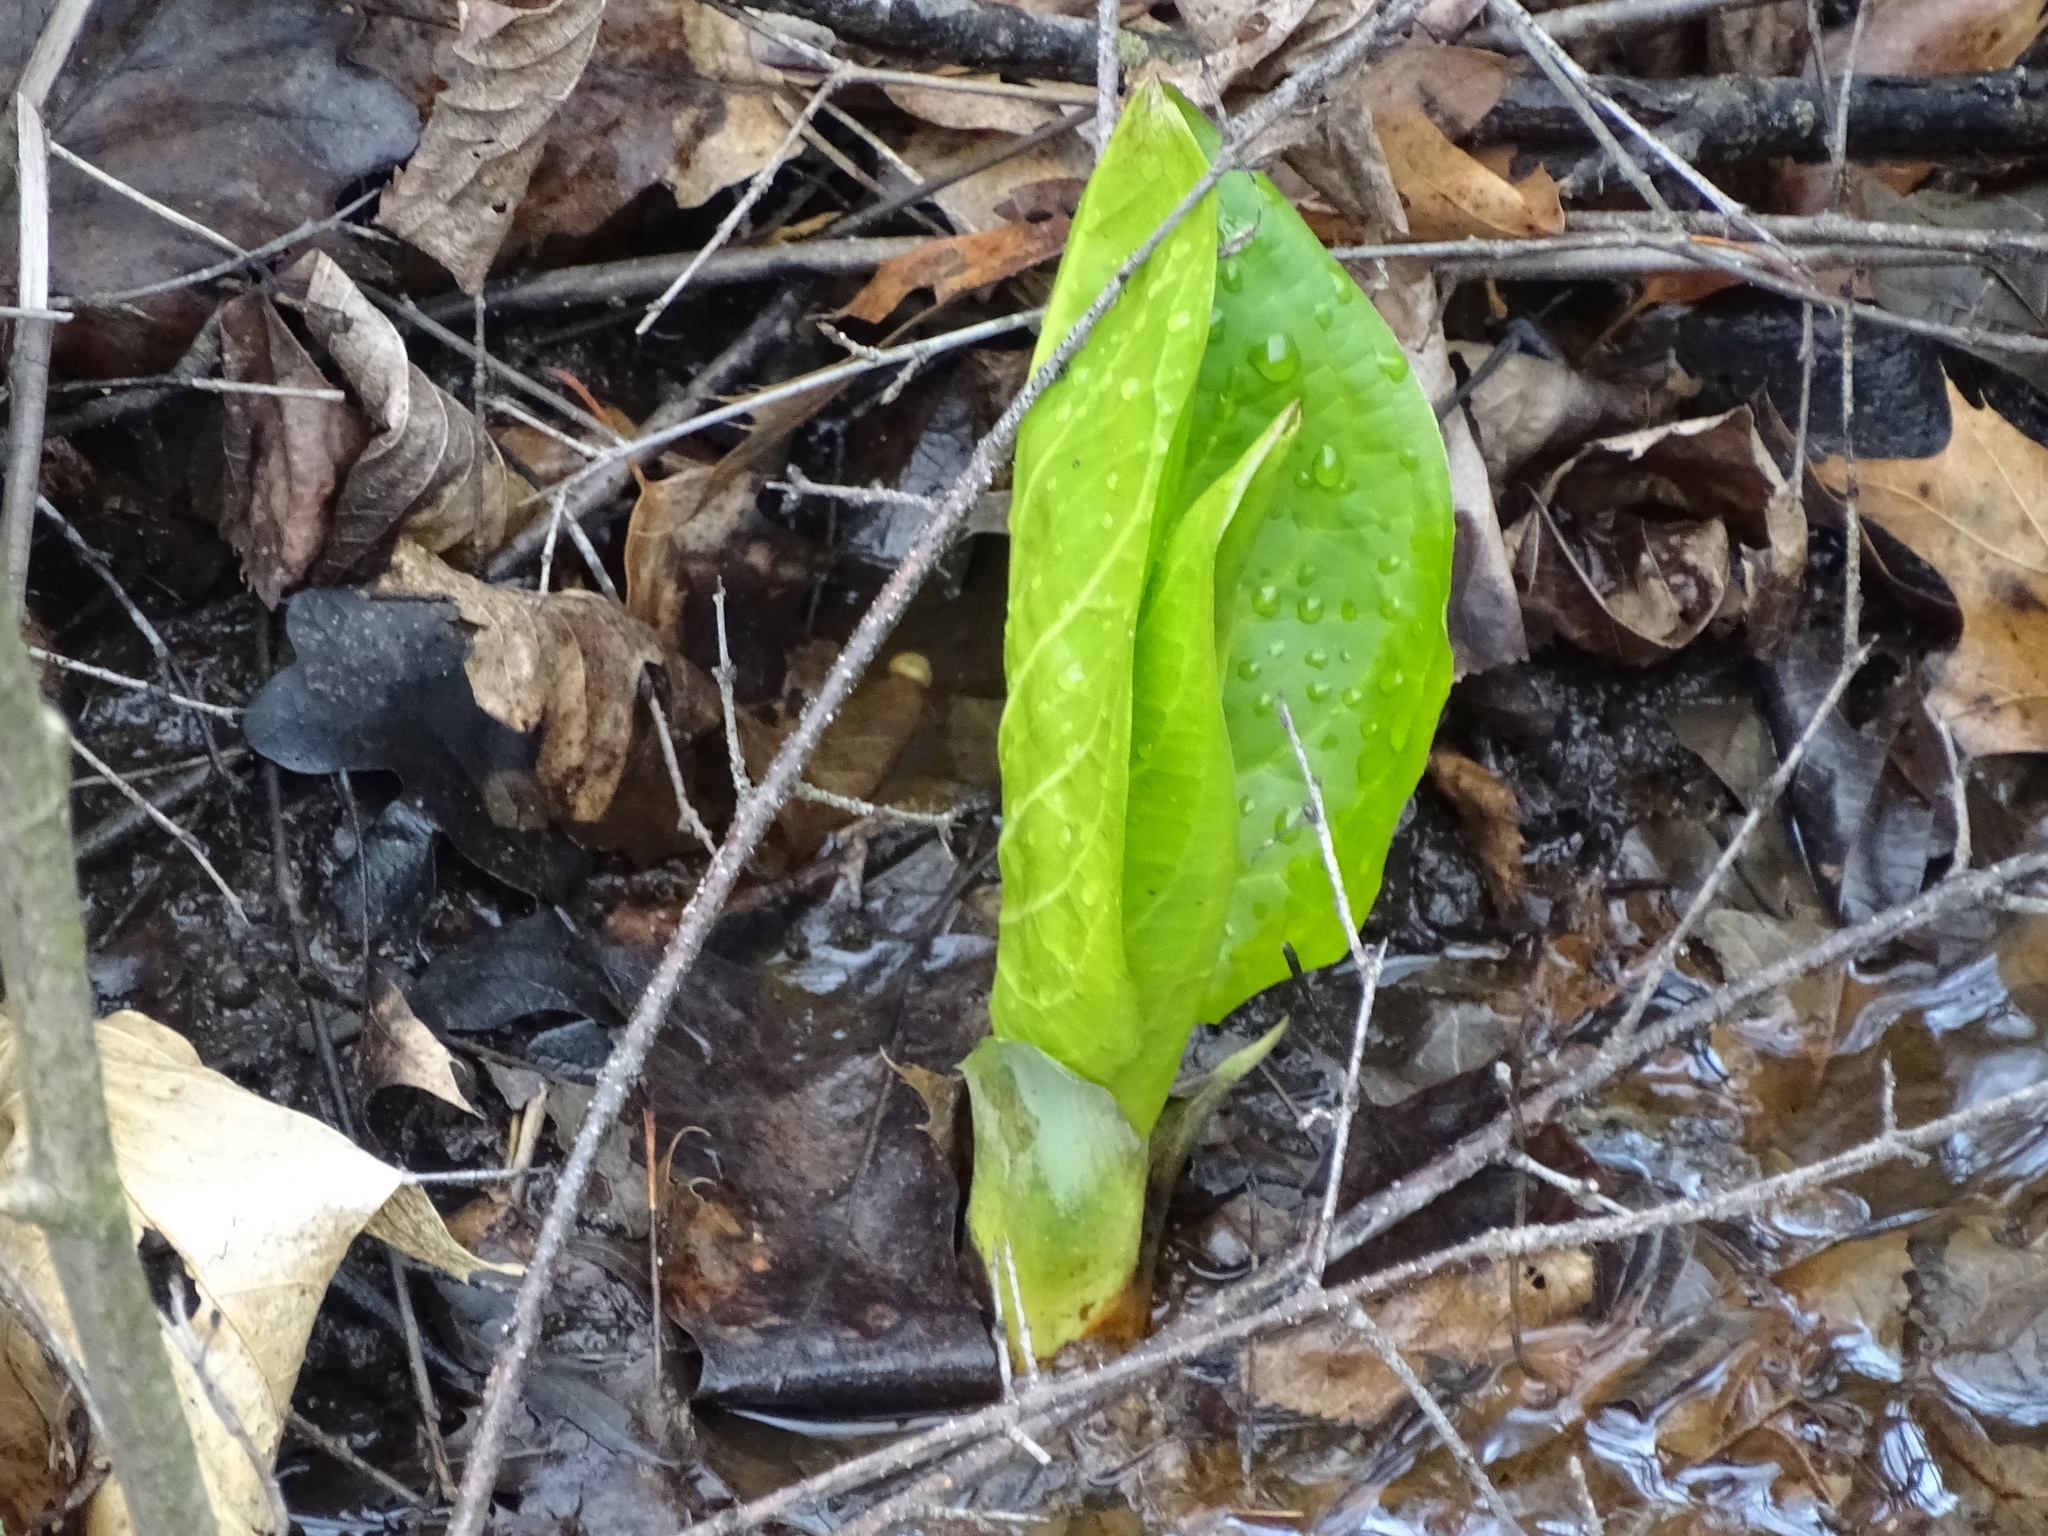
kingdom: Plantae
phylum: Tracheophyta
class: Liliopsida
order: Alismatales
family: Araceae
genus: Symplocarpus
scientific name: Symplocarpus foetidus
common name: Eastern skunk cabbage
